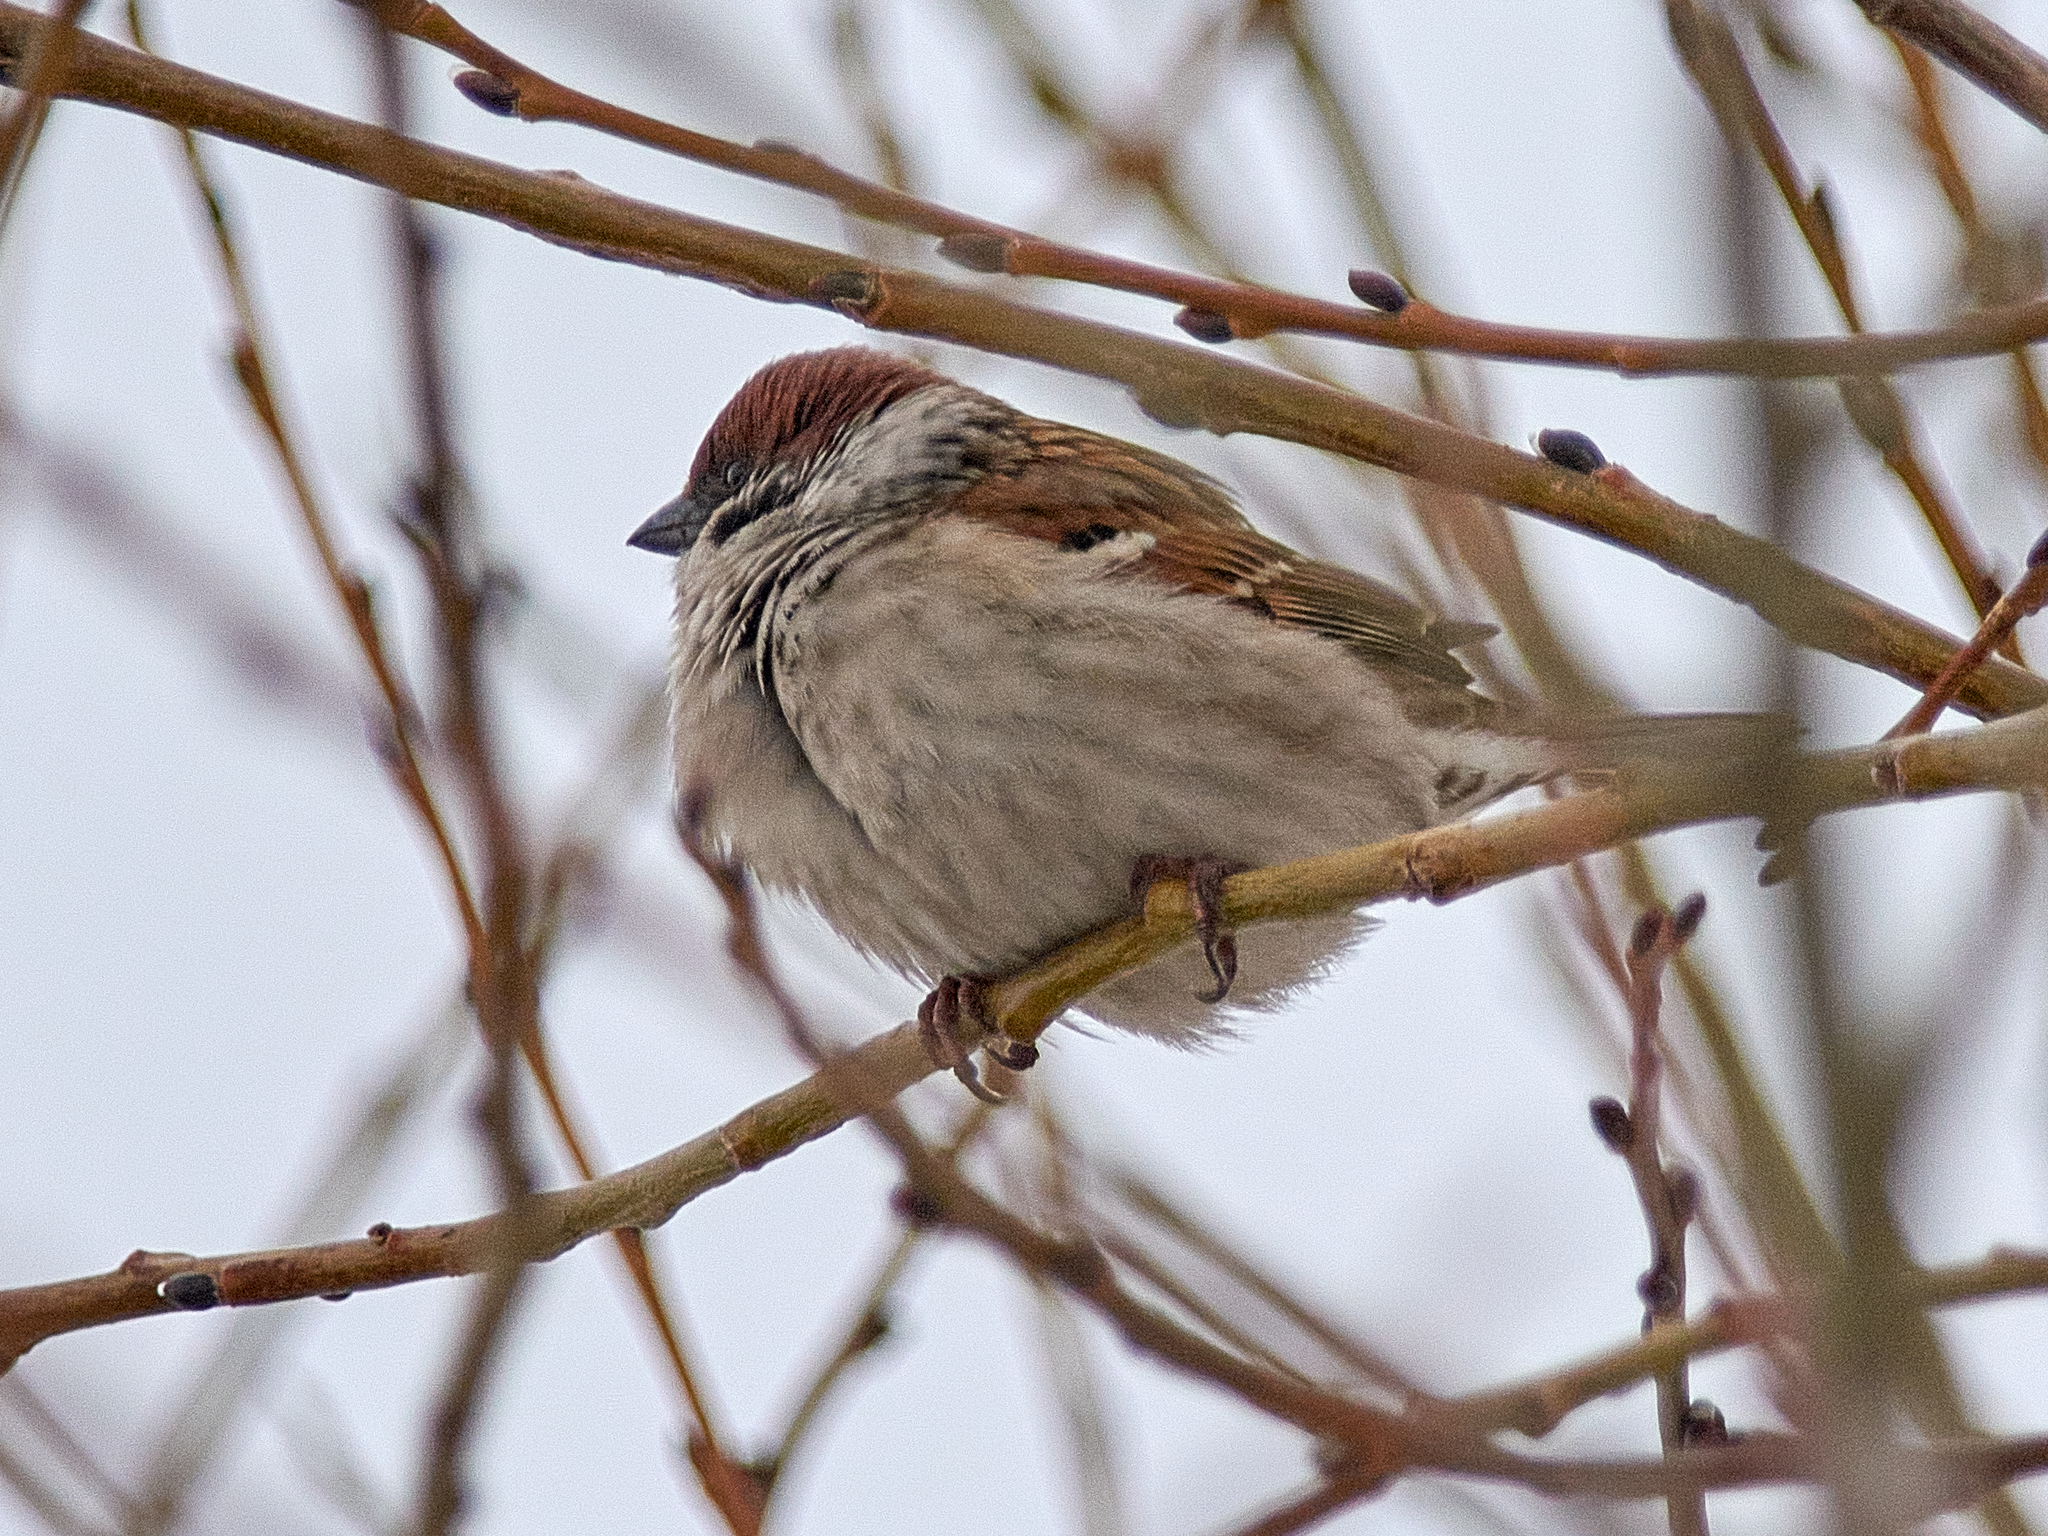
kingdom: Animalia
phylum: Chordata
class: Aves
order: Passeriformes
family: Passeridae
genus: Passer
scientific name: Passer montanus
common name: Eurasian tree sparrow
